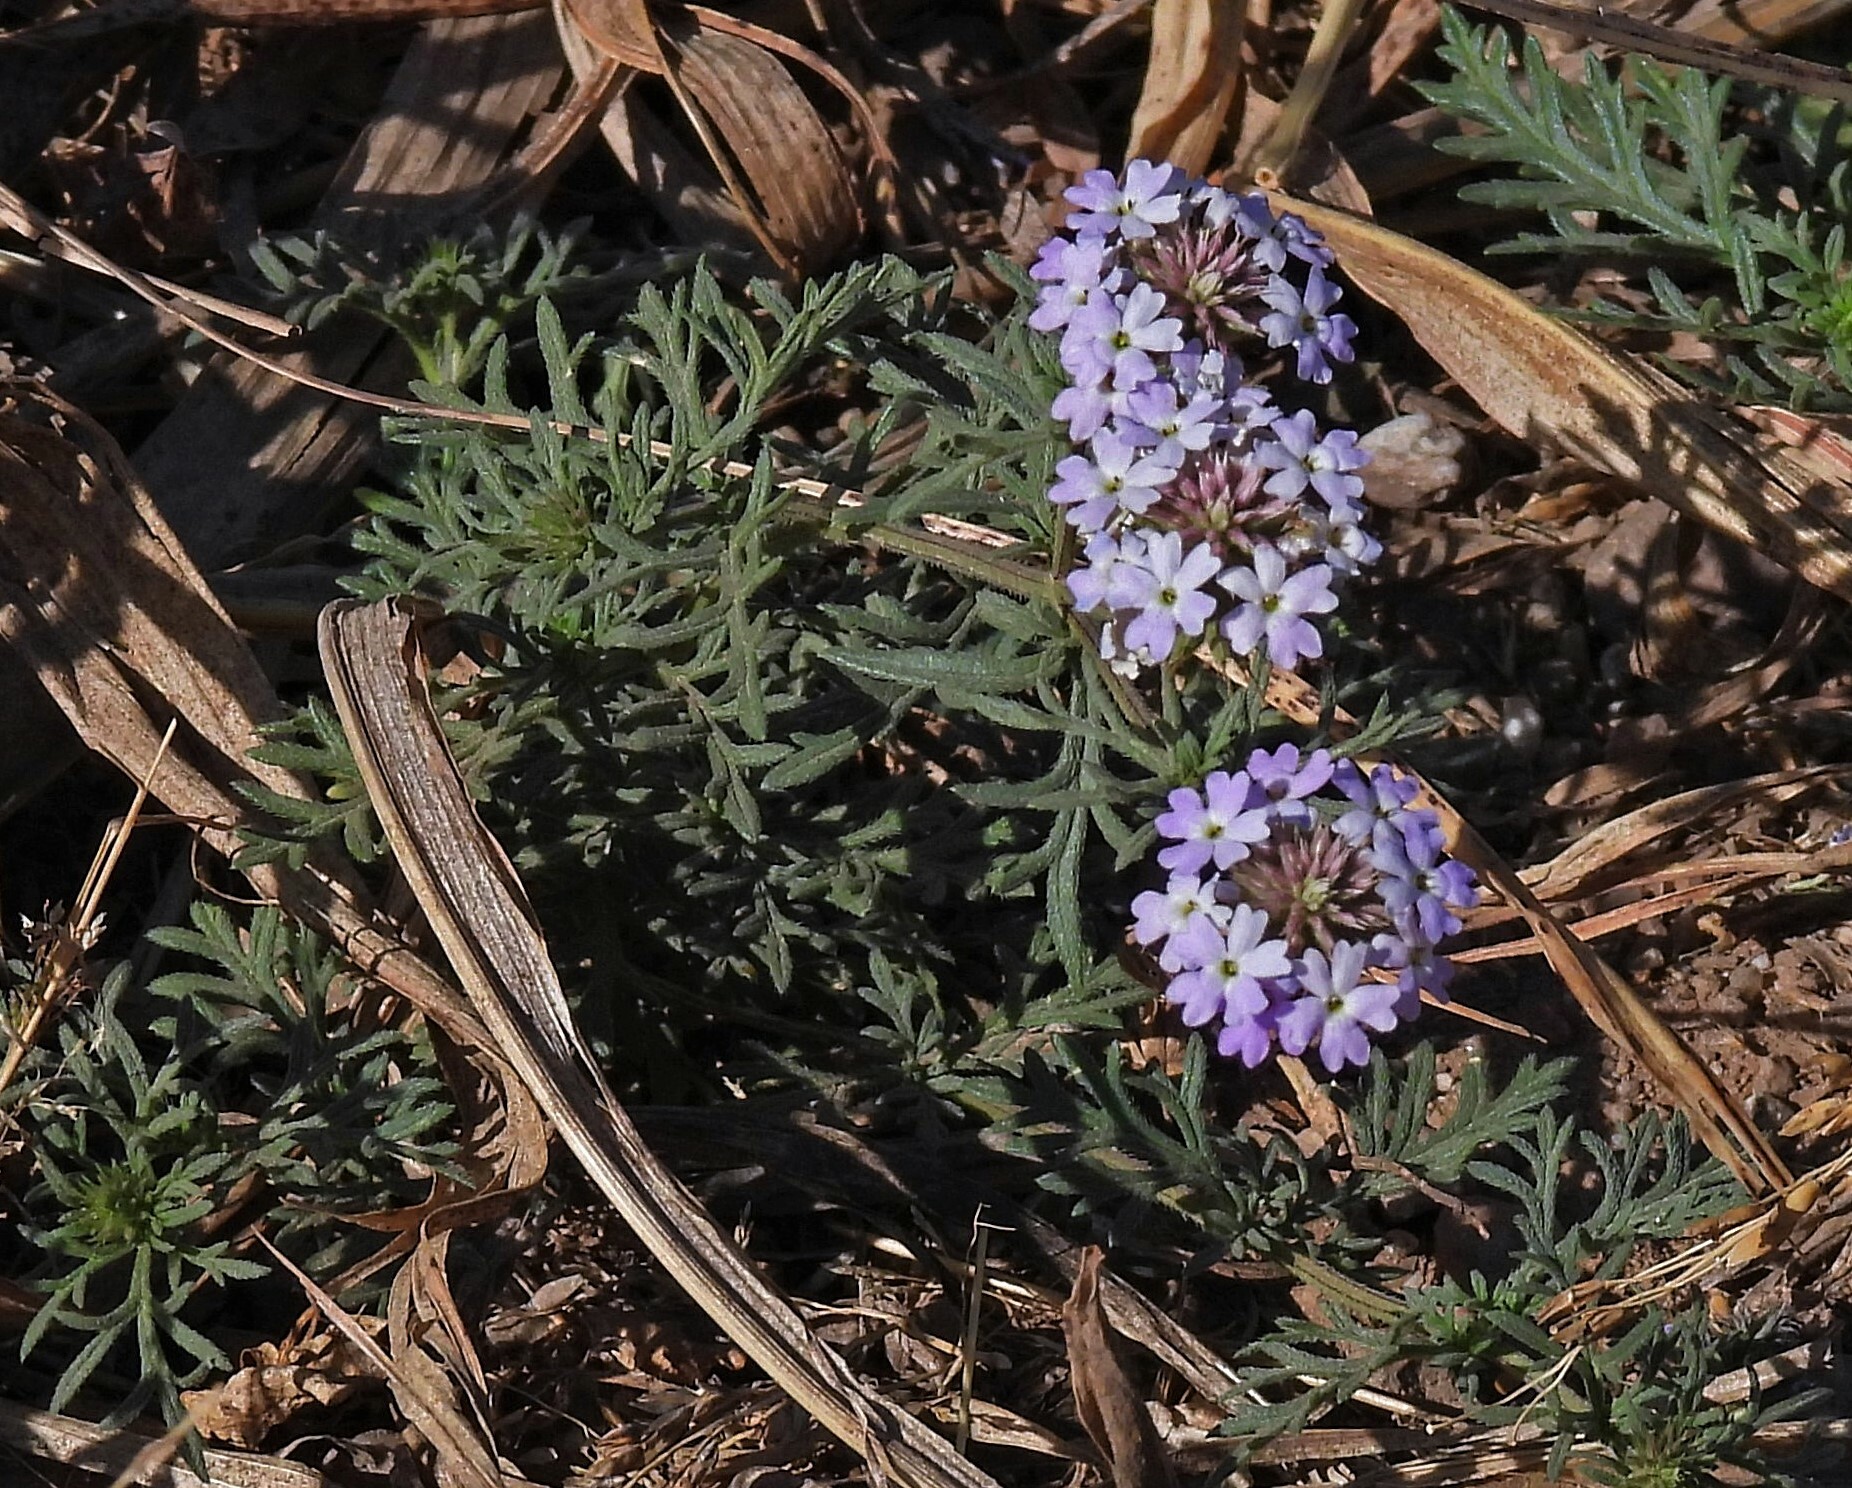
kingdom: Plantae
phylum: Tracheophyta
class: Magnoliopsida
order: Lamiales
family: Verbenaceae
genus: Verbena
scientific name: Verbena tenera
